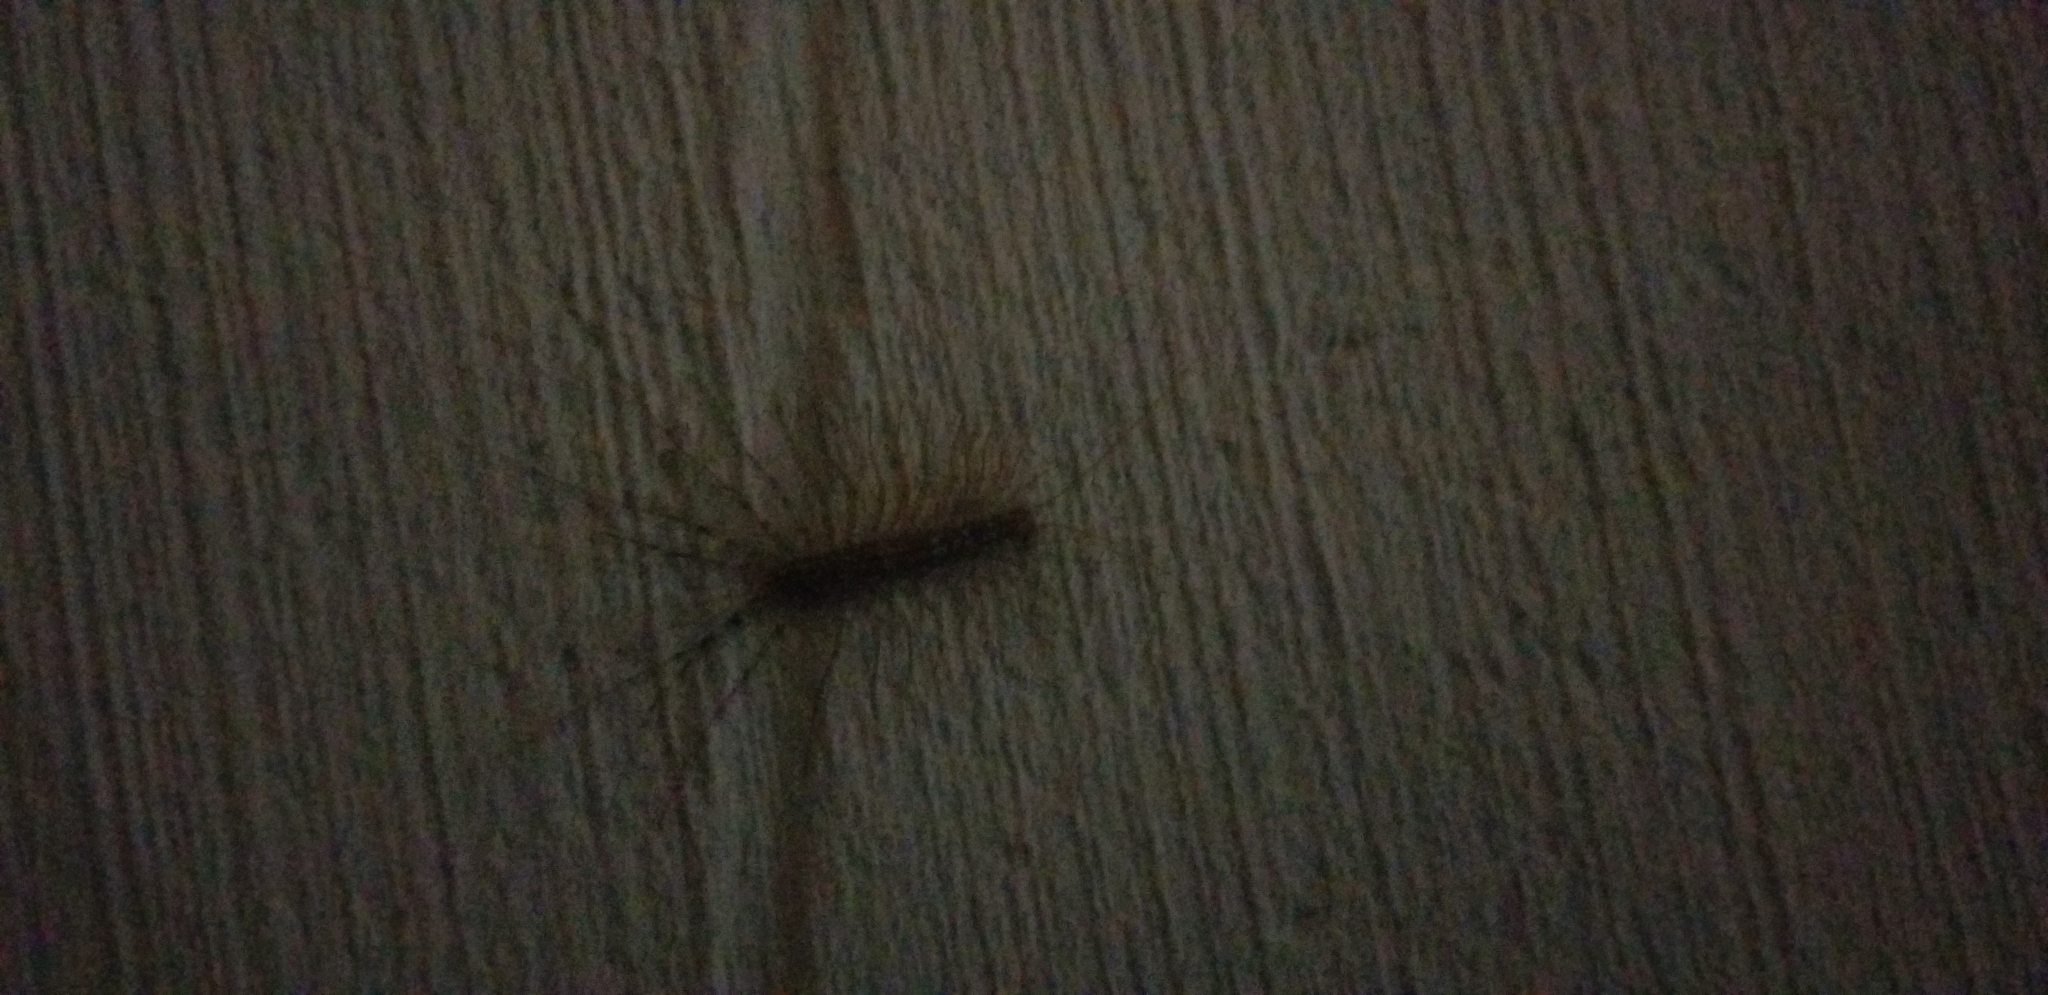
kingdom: Animalia
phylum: Arthropoda
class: Chilopoda
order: Scutigeromorpha
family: Scutigeridae
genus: Scutigera
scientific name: Scutigera coleoptrata
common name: House centipede
